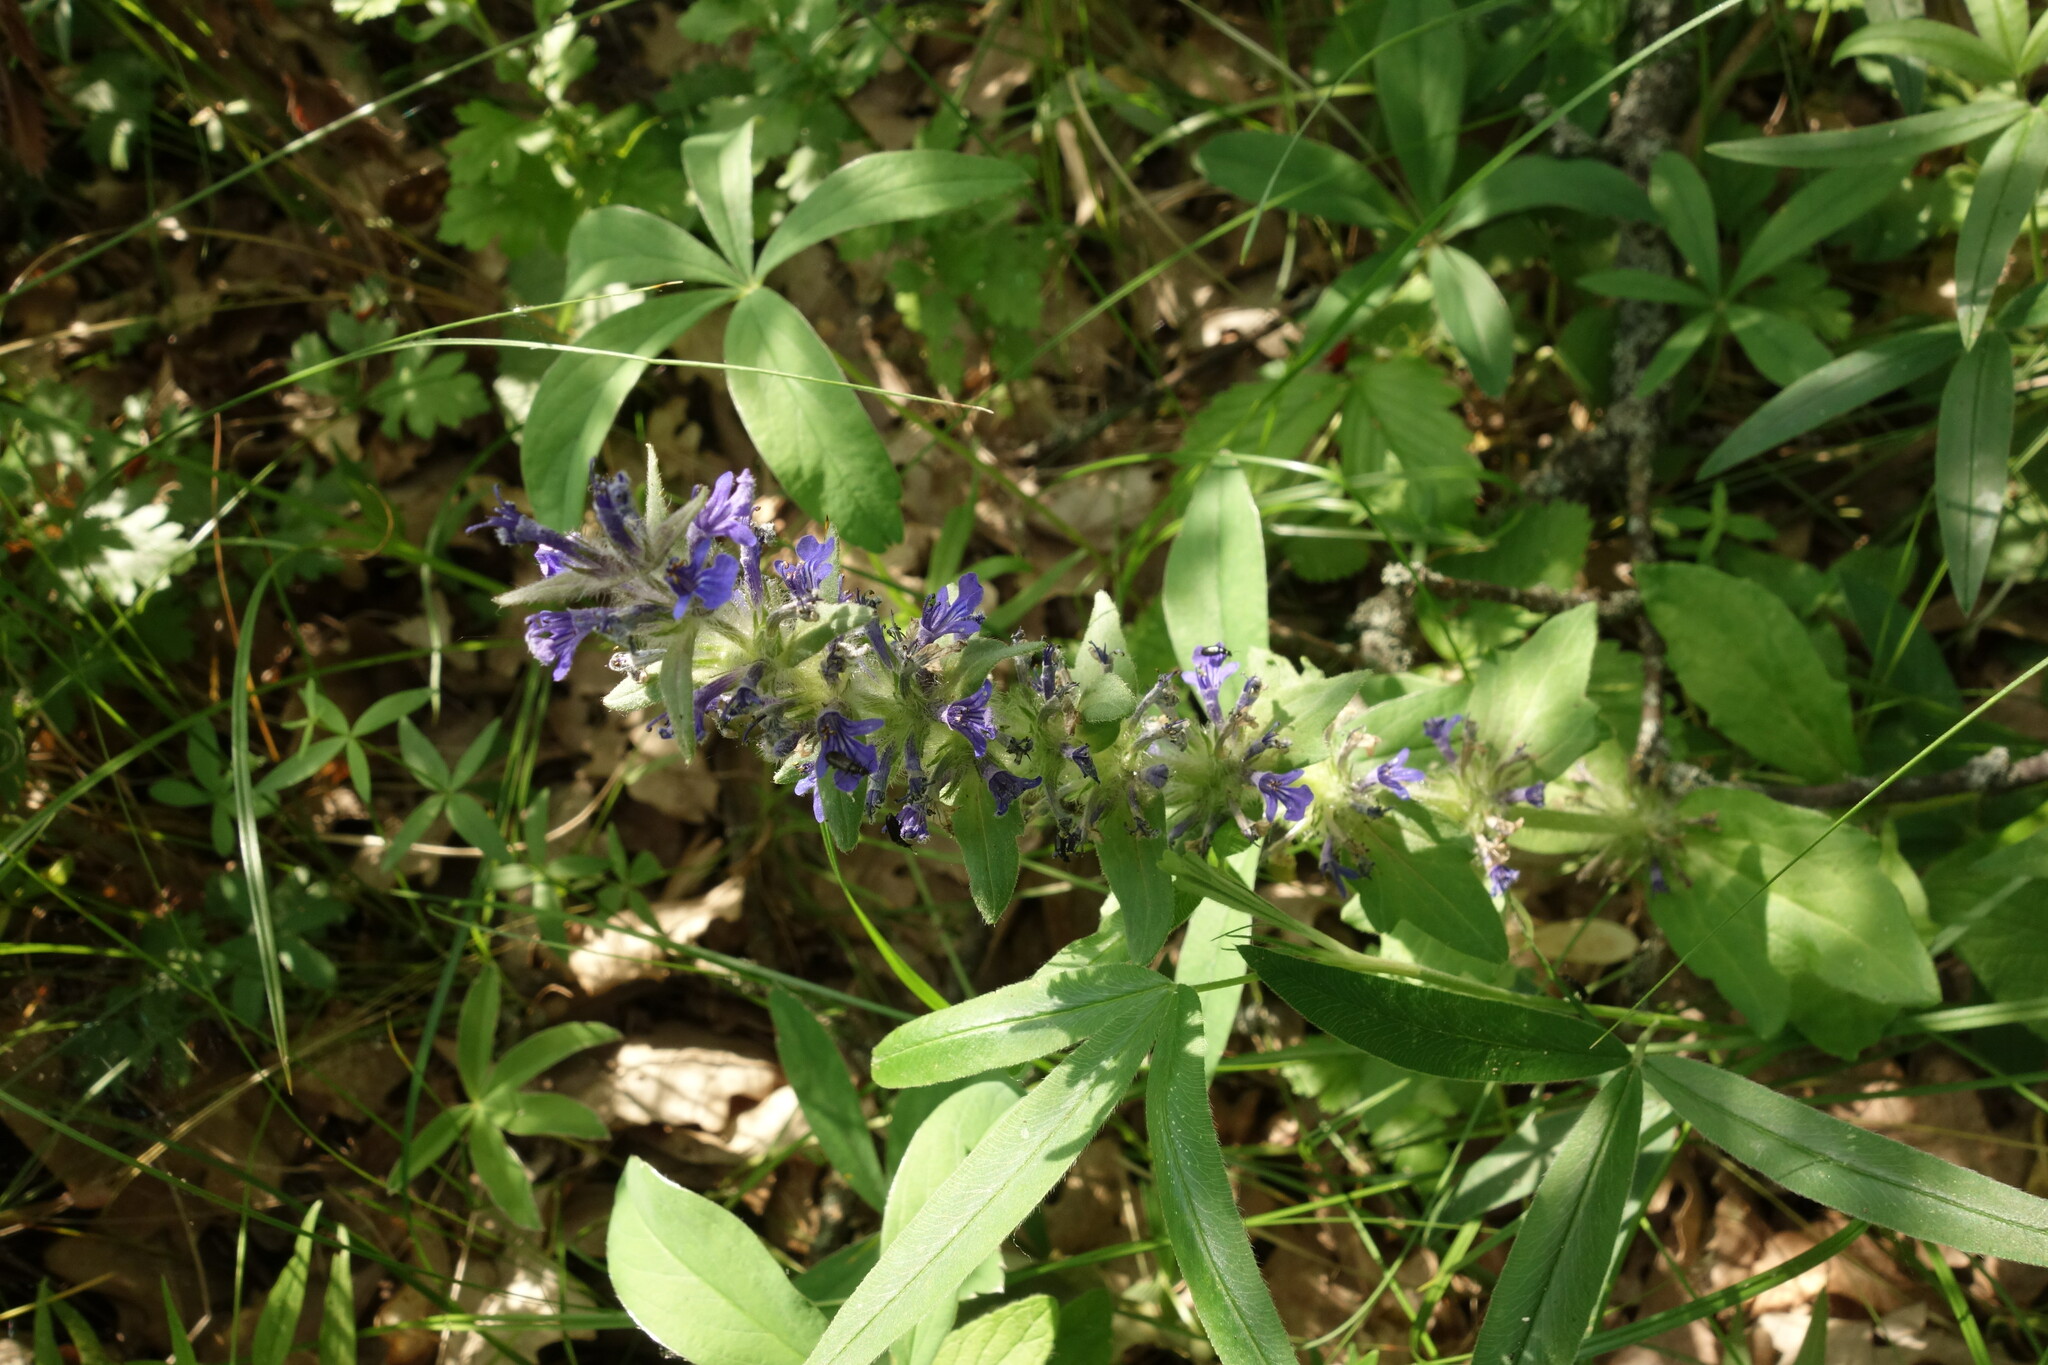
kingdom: Plantae
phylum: Tracheophyta
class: Magnoliopsida
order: Lamiales
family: Lamiaceae
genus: Ajuga
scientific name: Ajuga genevensis
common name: Blue bugle
